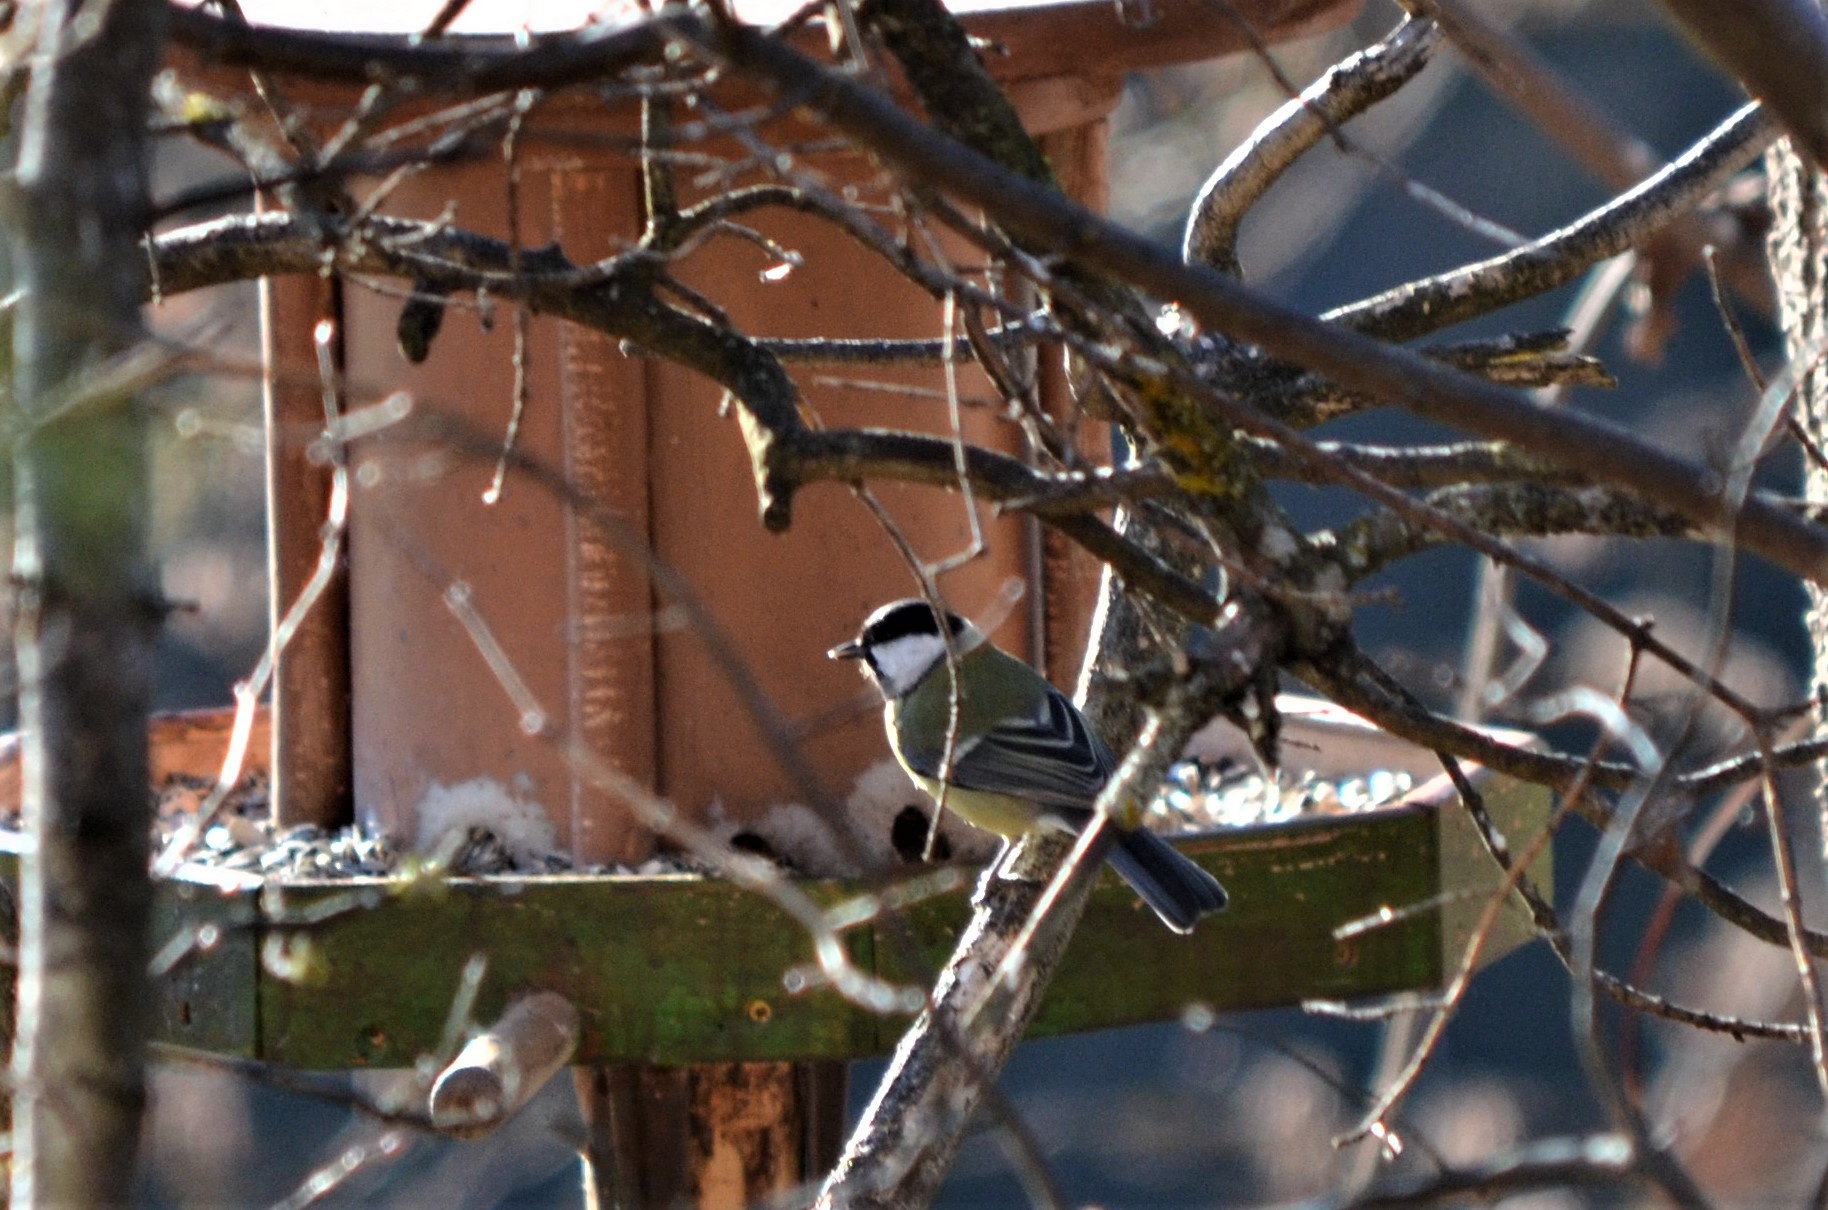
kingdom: Animalia
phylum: Chordata
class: Aves
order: Passeriformes
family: Paridae
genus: Parus
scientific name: Parus major
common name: Great tit
